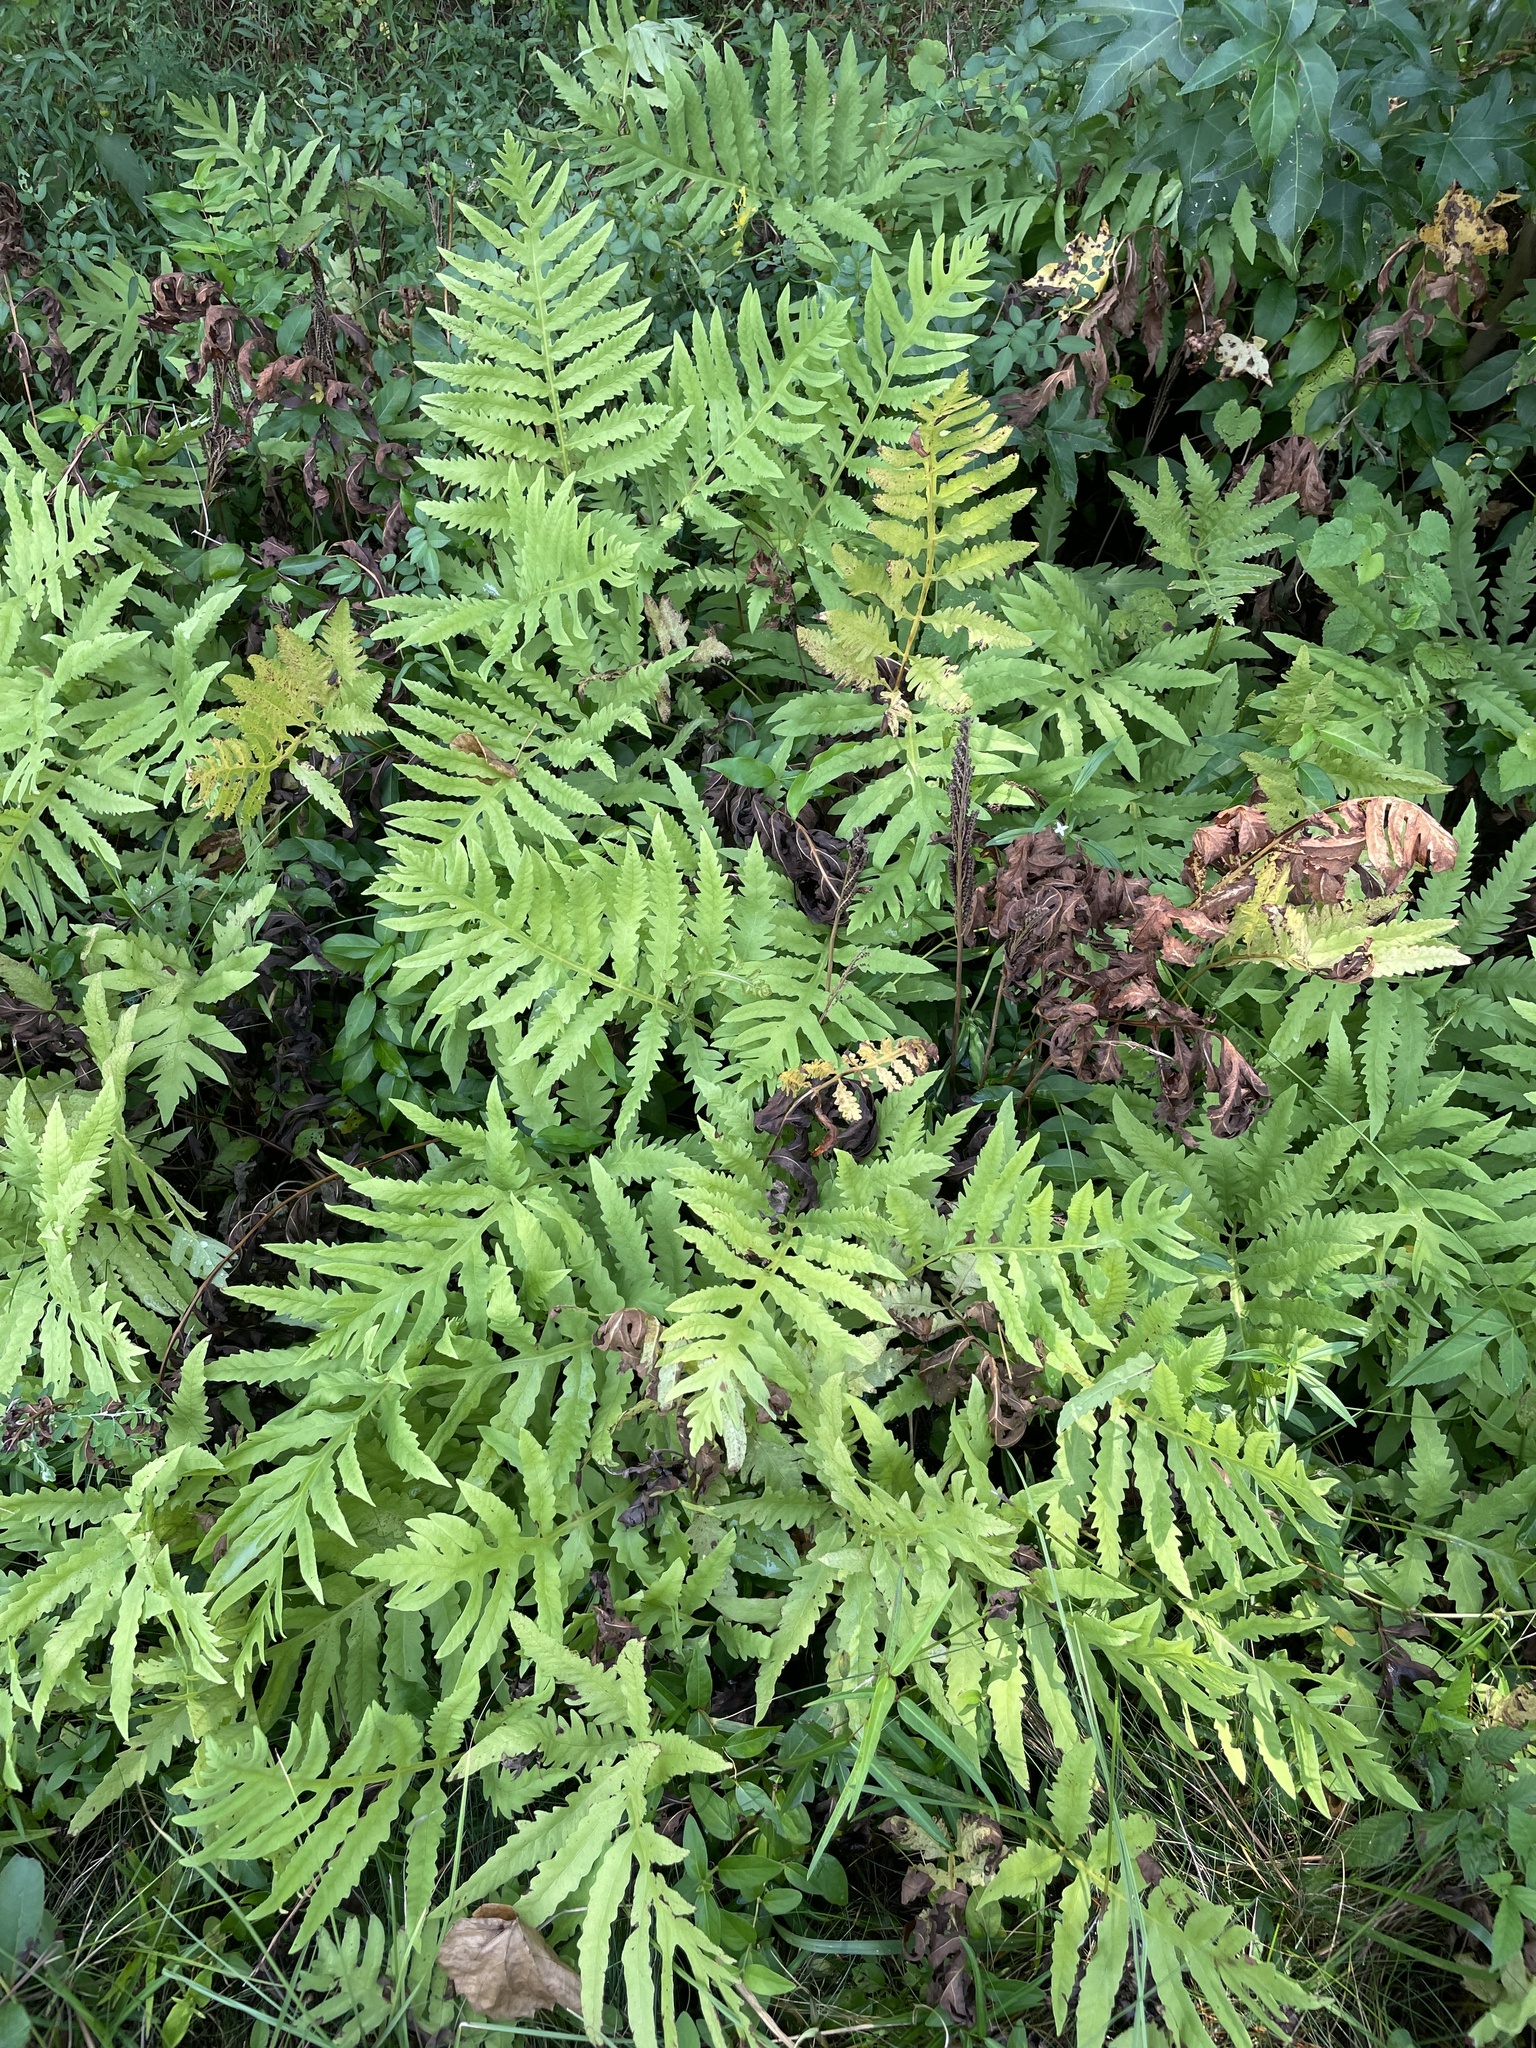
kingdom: Plantae
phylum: Tracheophyta
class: Polypodiopsida
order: Polypodiales
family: Onocleaceae
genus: Onoclea
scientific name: Onoclea sensibilis
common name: Sensitive fern
